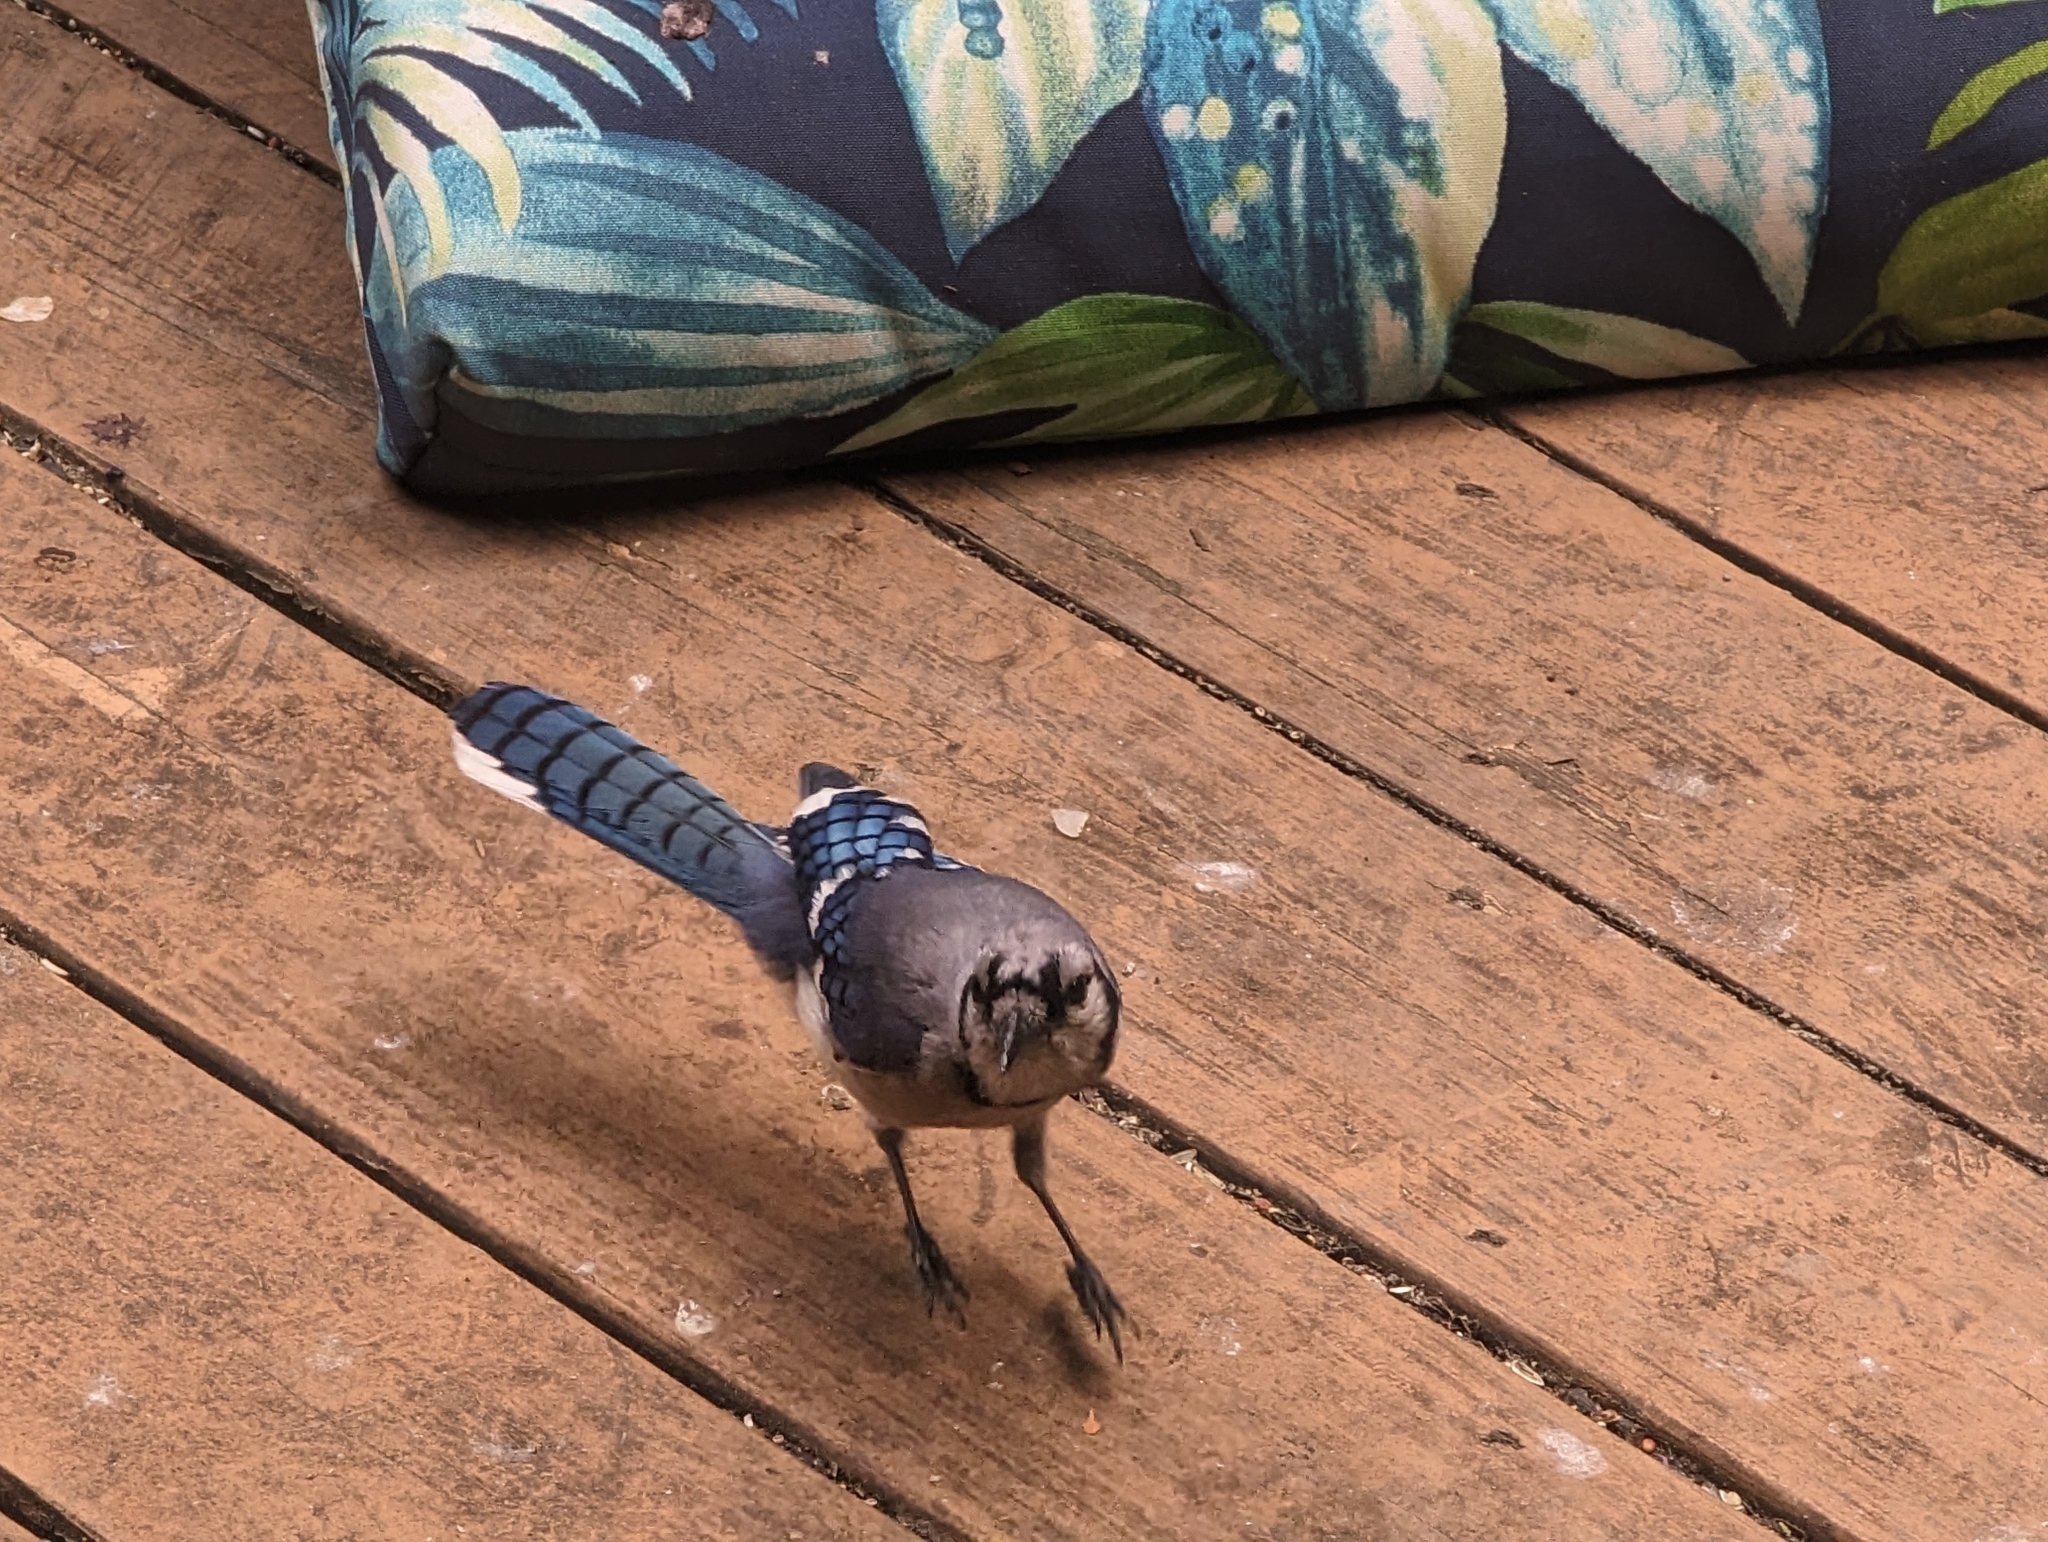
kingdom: Animalia
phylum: Chordata
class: Aves
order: Passeriformes
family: Corvidae
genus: Cyanocitta
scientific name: Cyanocitta cristata
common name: Blue jay
